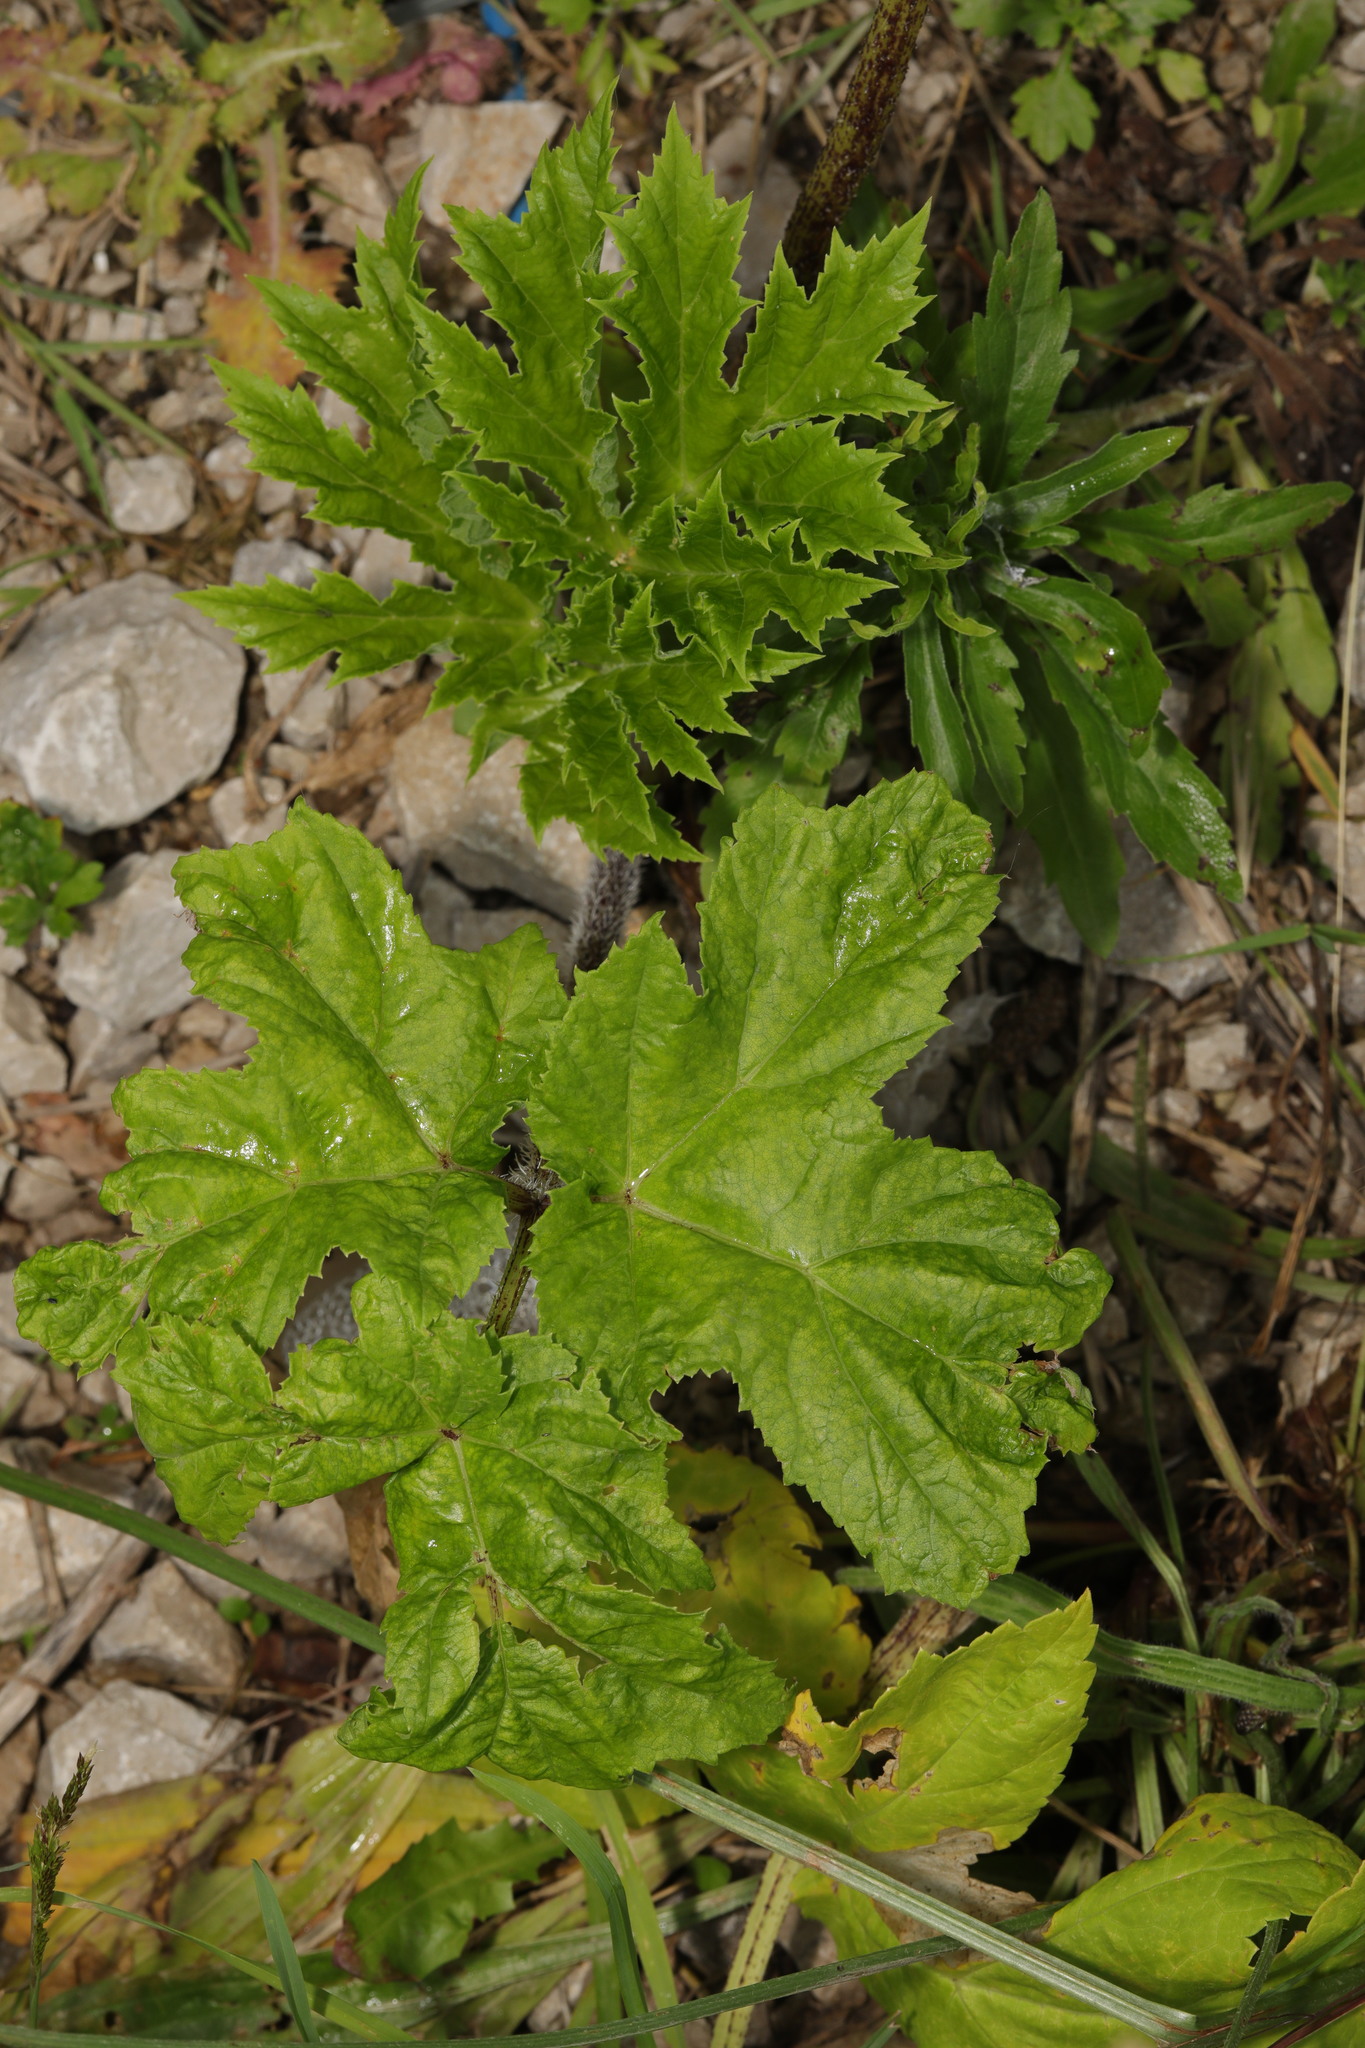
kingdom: Plantae
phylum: Tracheophyta
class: Magnoliopsida
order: Apiales
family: Apiaceae
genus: Heracleum
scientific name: Heracleum sphondylium
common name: Hogweed
